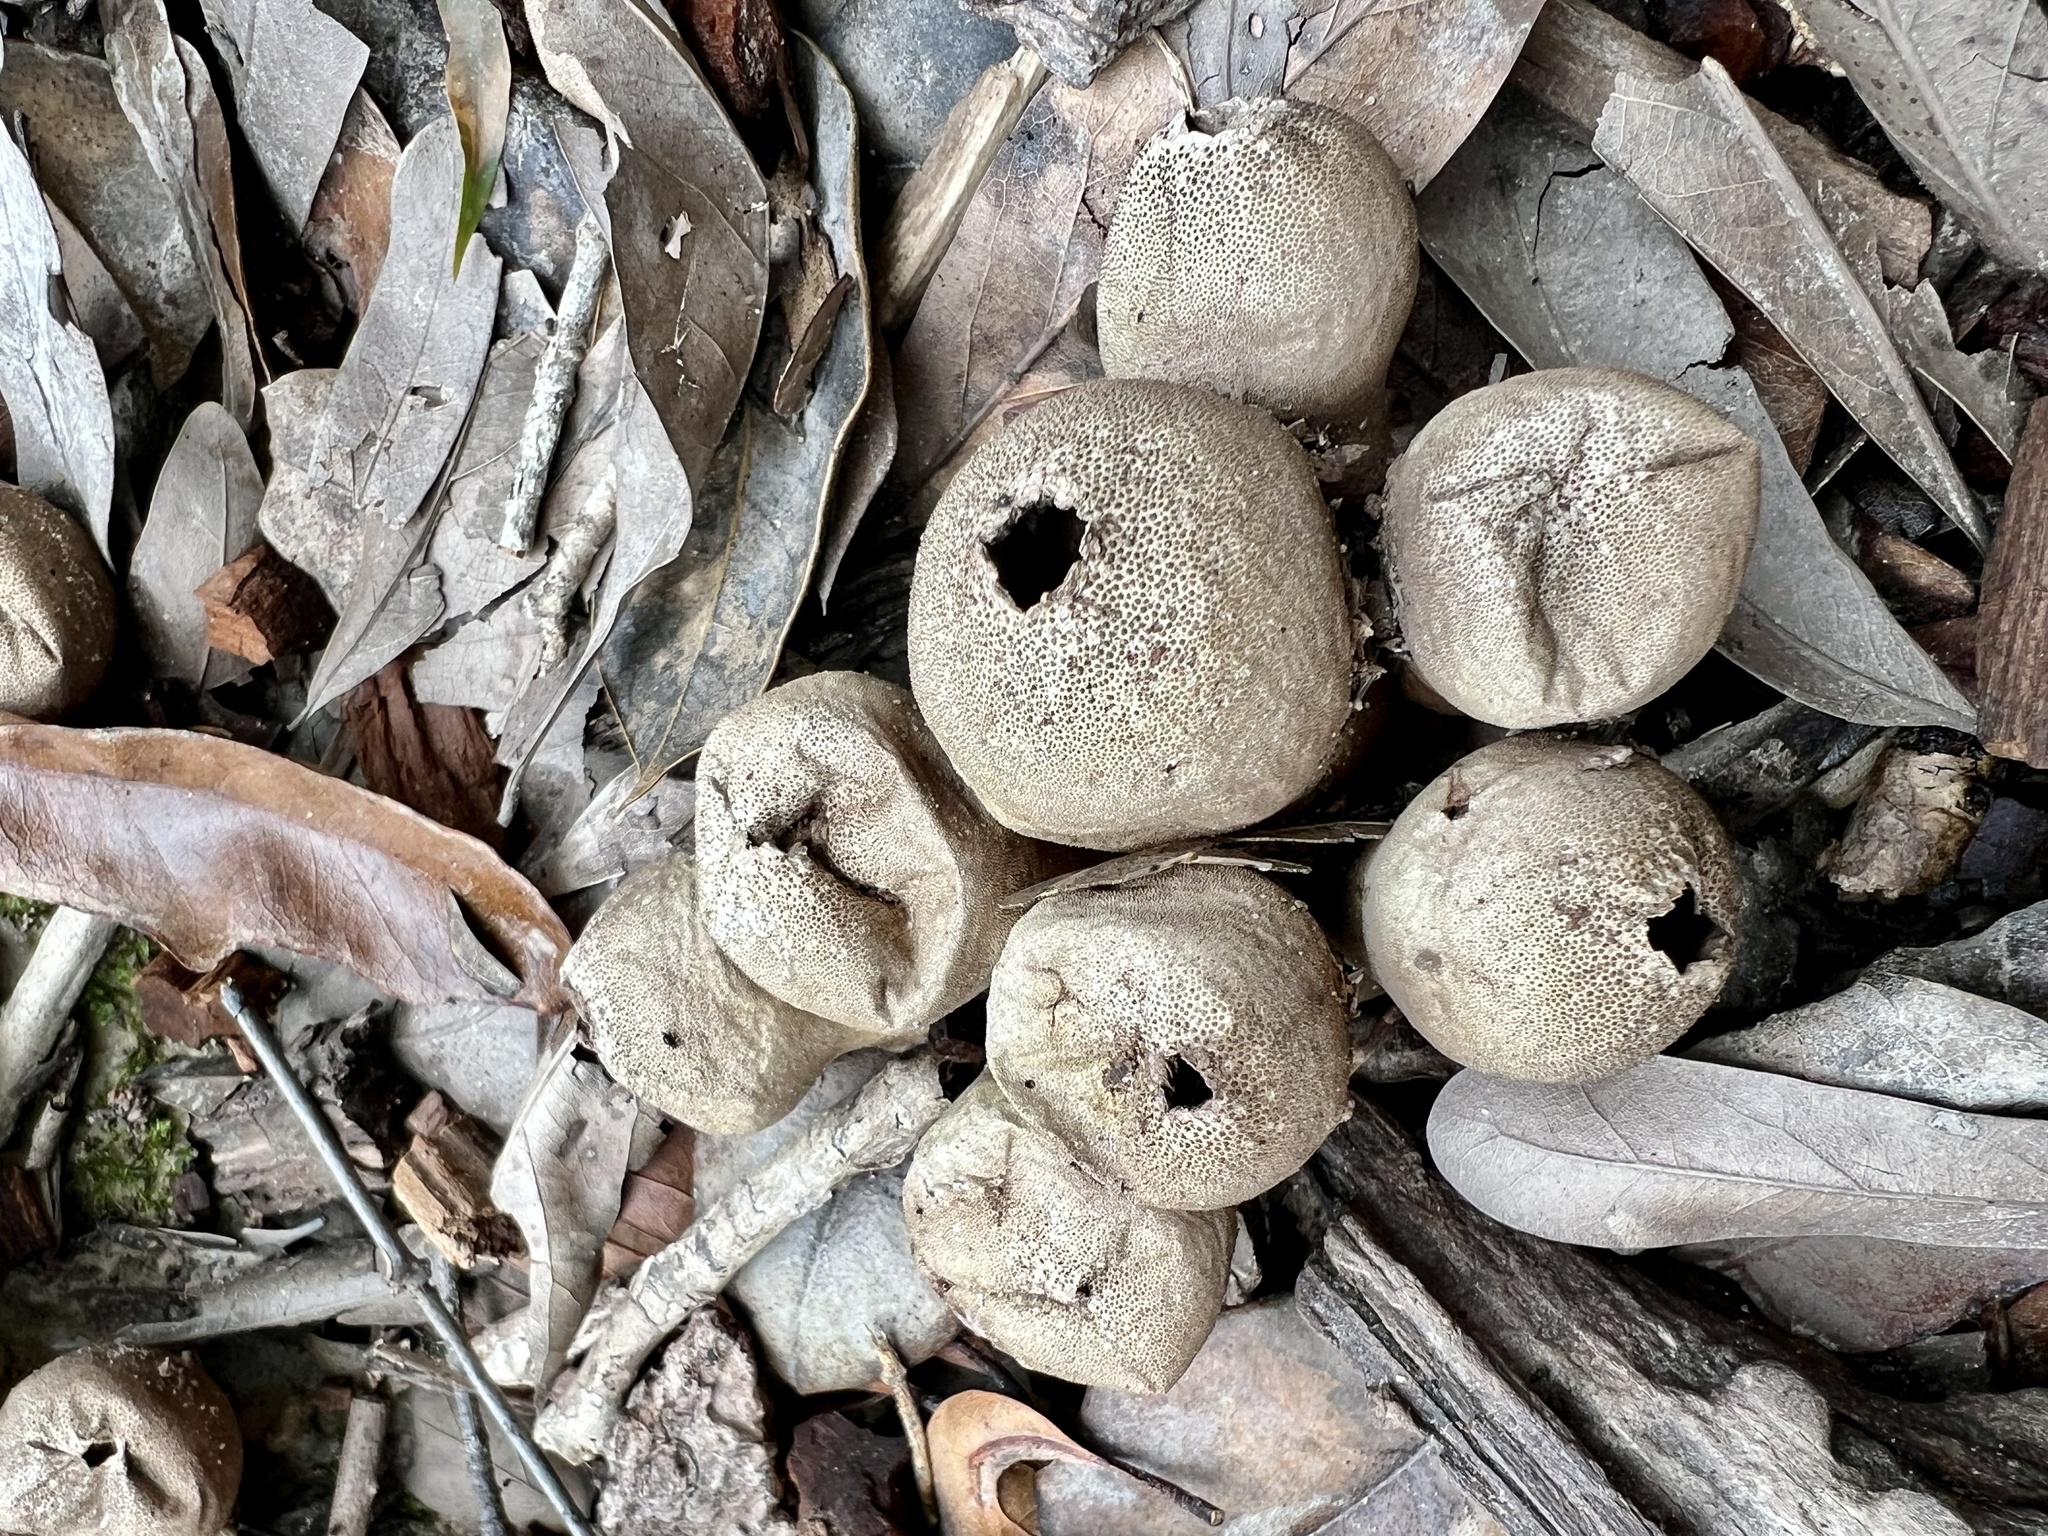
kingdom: Fungi
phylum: Basidiomycota
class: Agaricomycetes
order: Agaricales
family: Lycoperdaceae
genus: Apioperdon
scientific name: Apioperdon pyriforme
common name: Pear-shaped puffball
